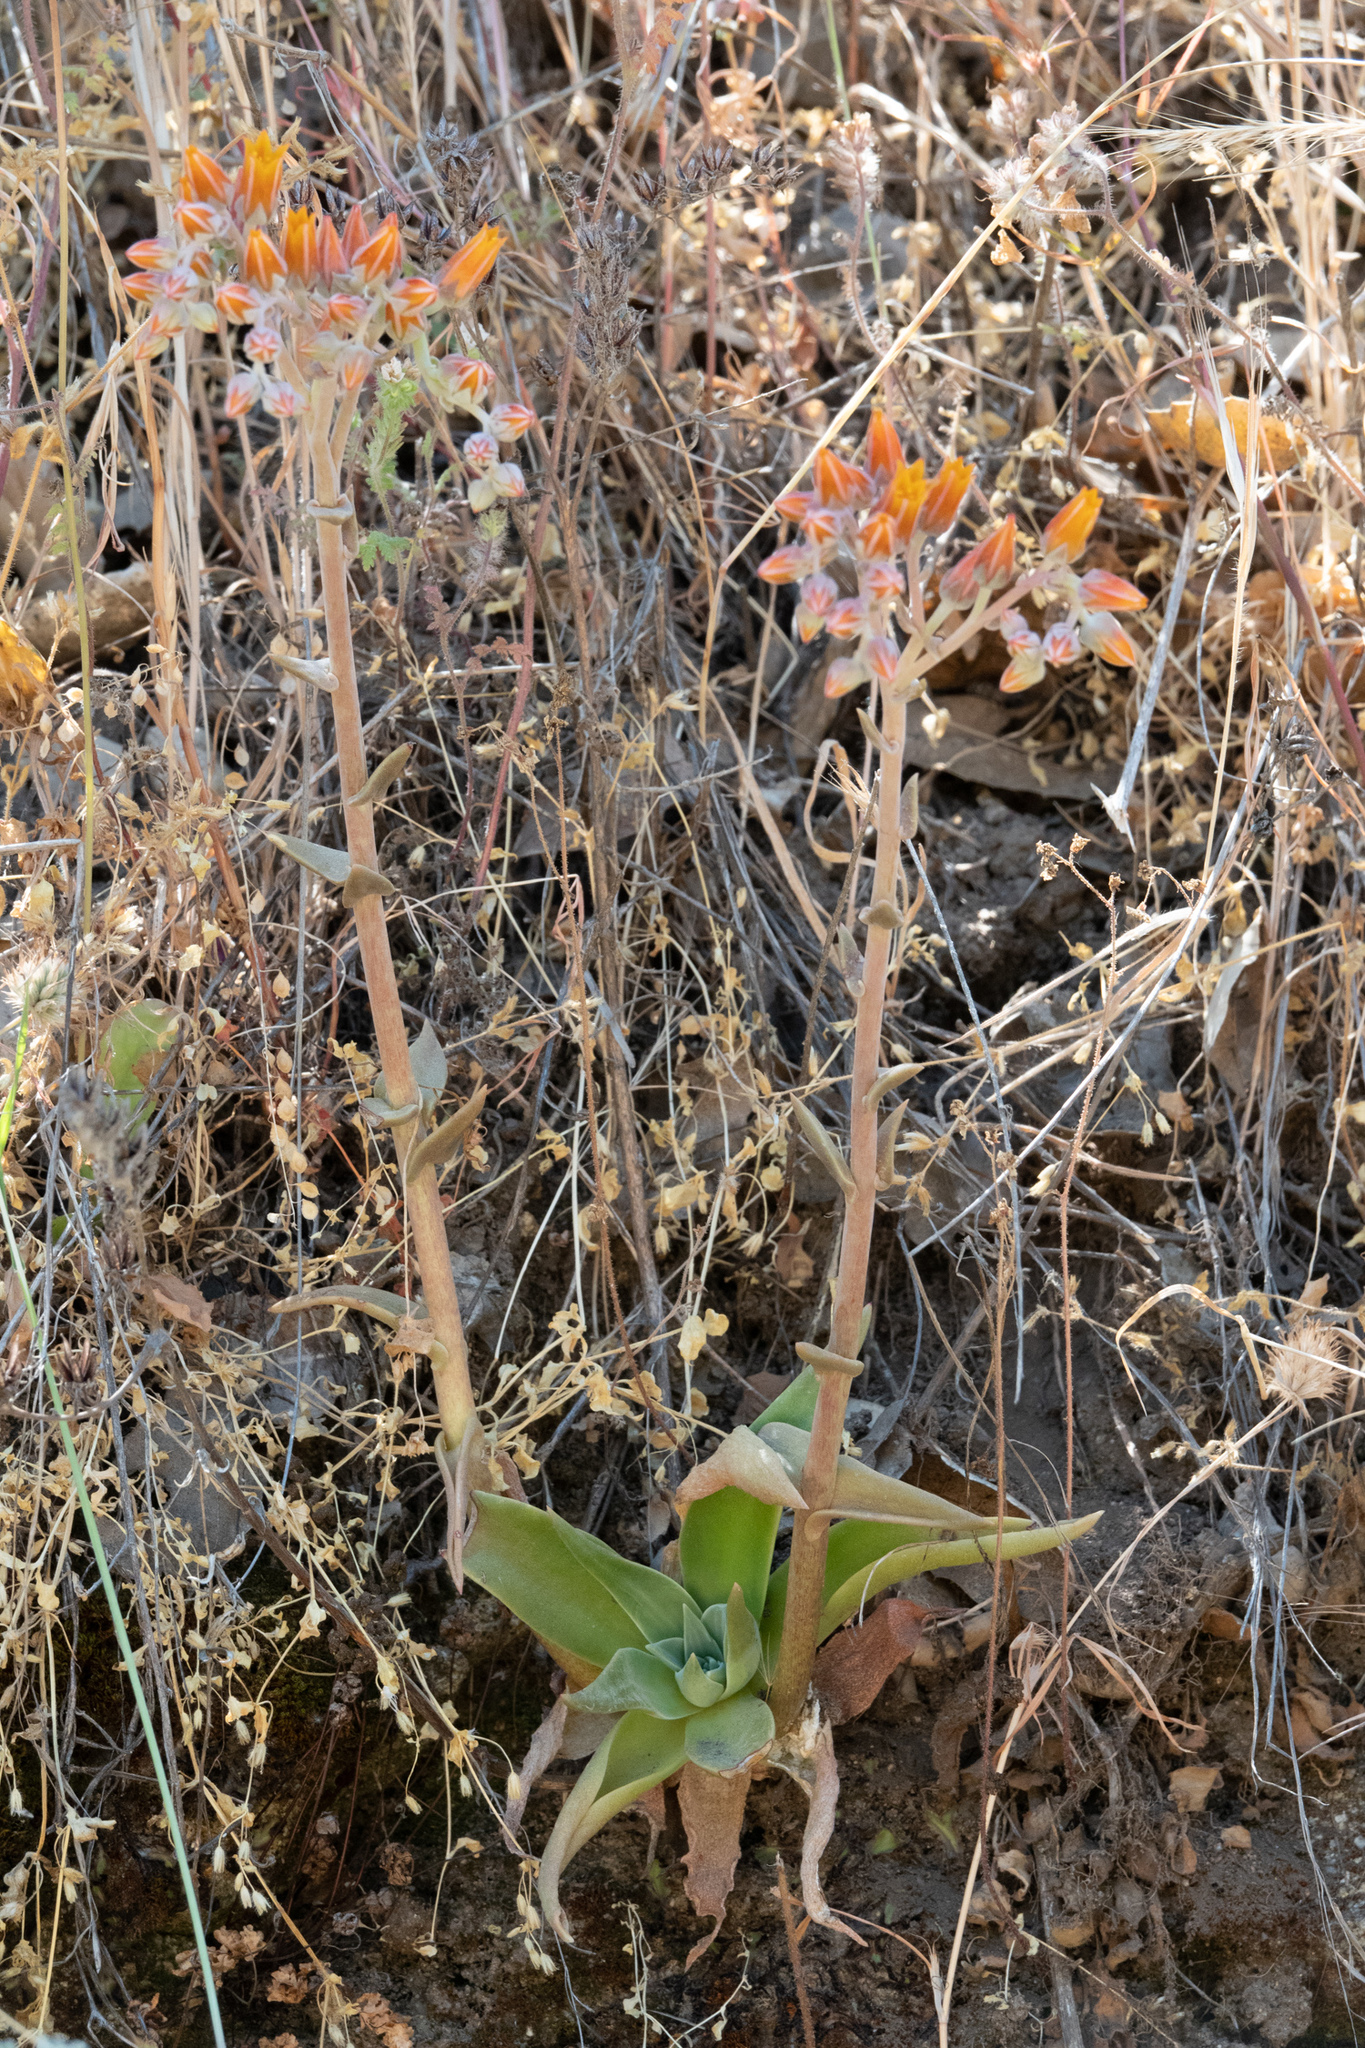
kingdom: Plantae
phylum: Tracheophyta
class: Magnoliopsida
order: Saxifragales
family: Crassulaceae
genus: Dudleya
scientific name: Dudleya cymosa
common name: Canyon dudleya
